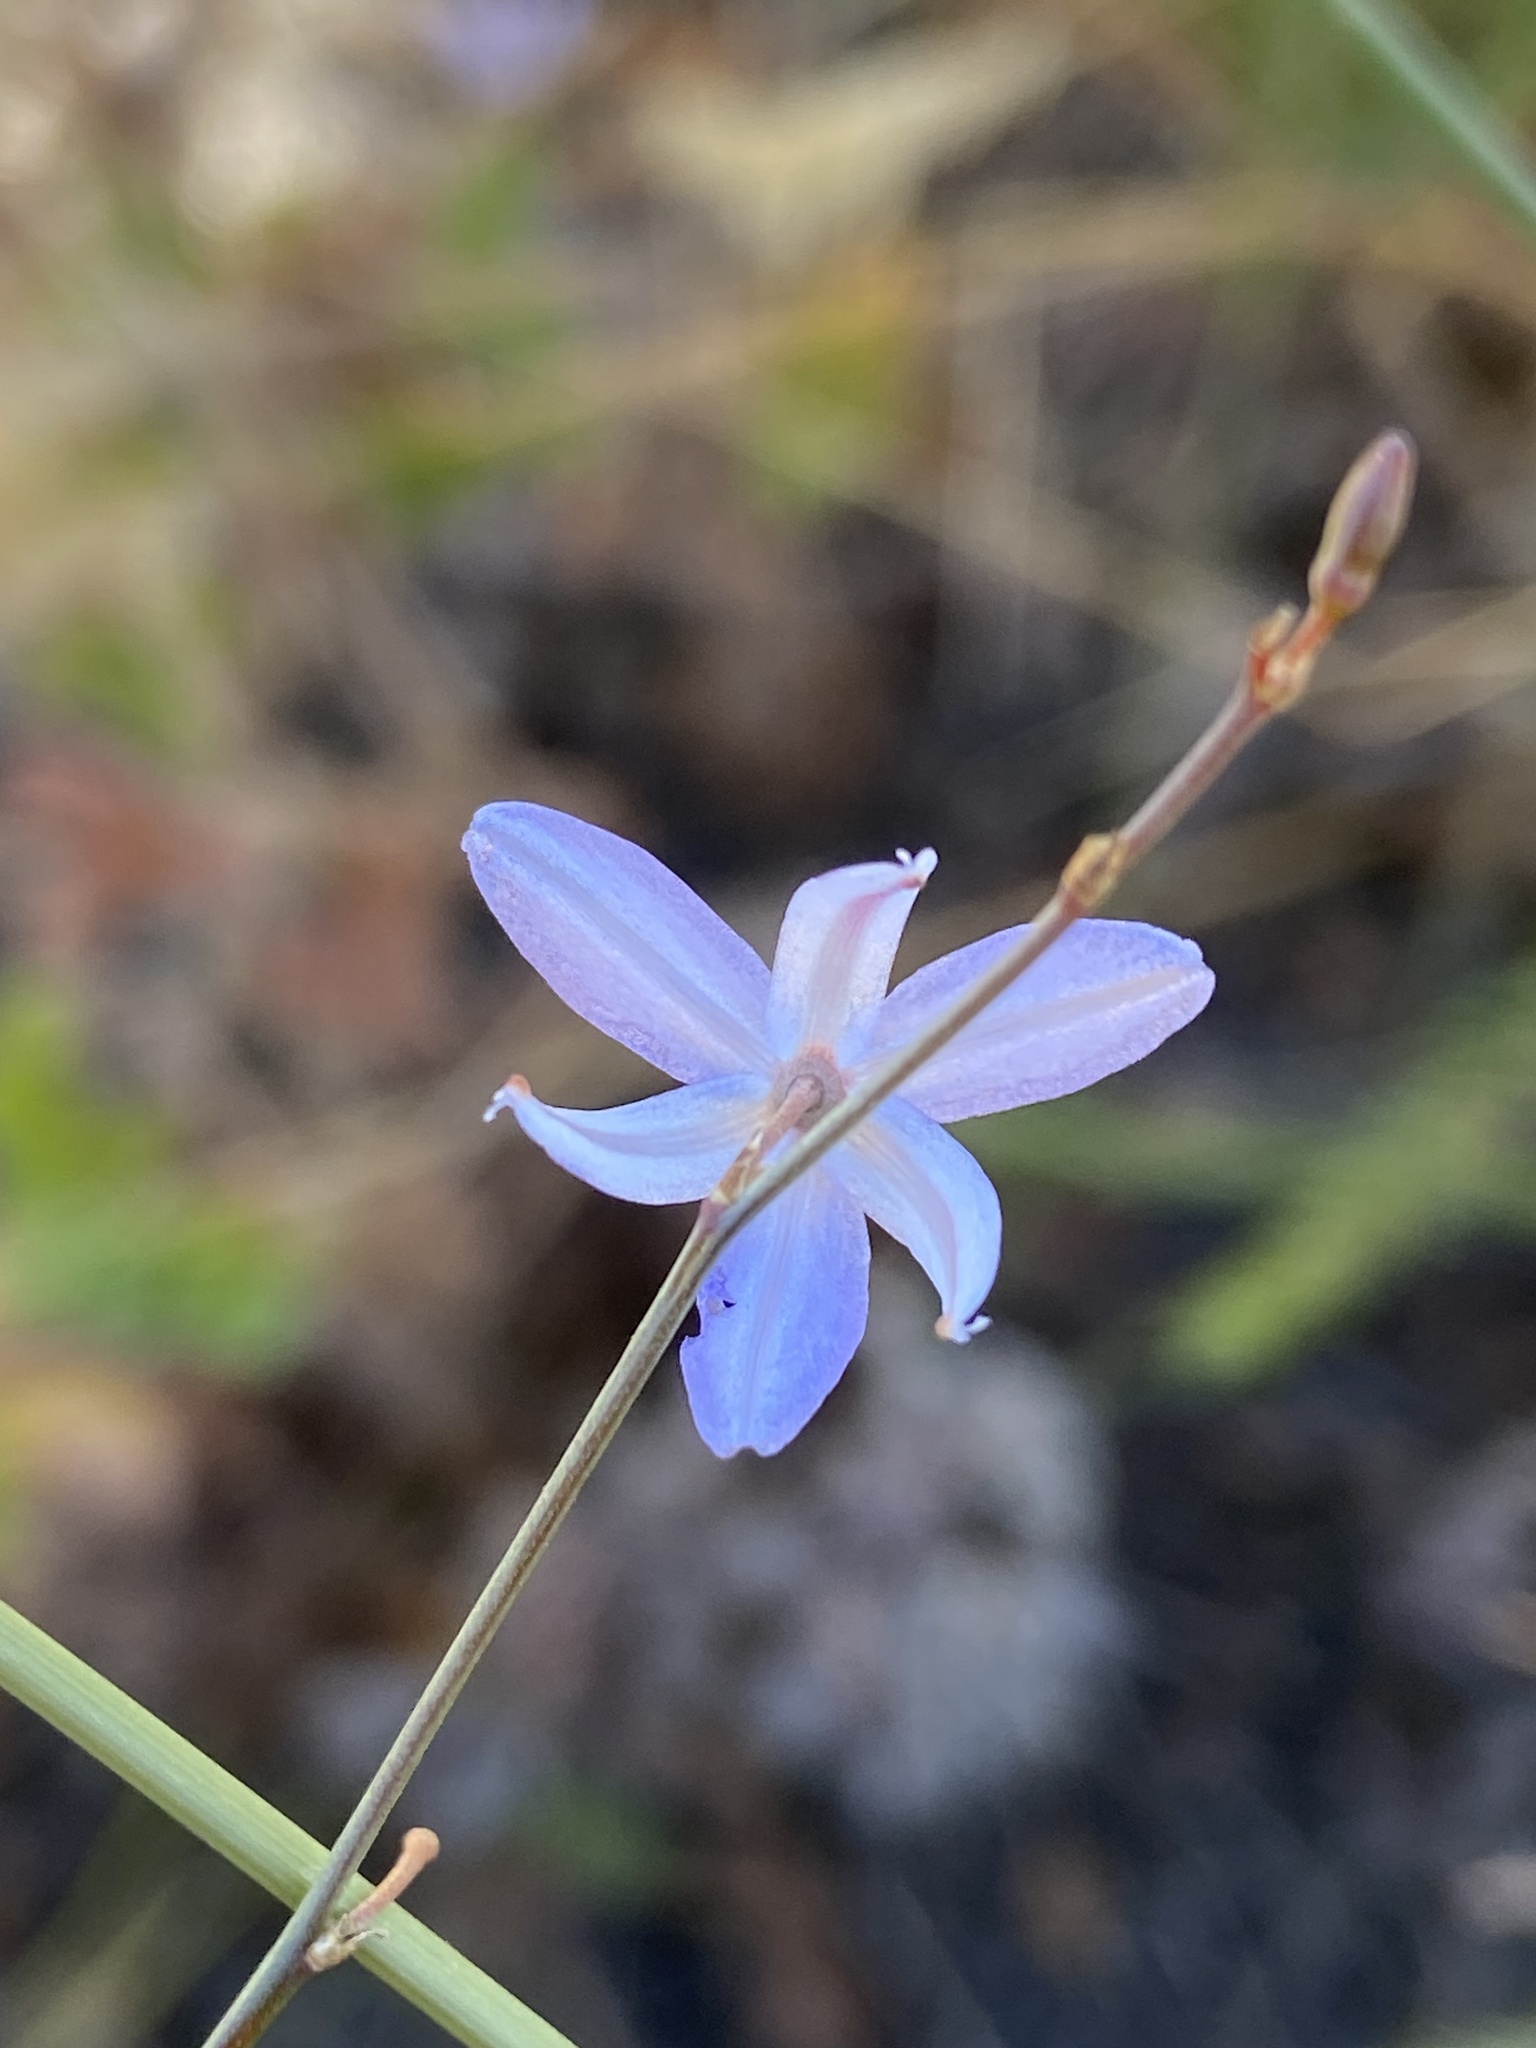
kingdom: Plantae
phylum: Tracheophyta
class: Liliopsida
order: Asparagales
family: Asphodelaceae
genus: Caesia
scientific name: Caesia contorta
